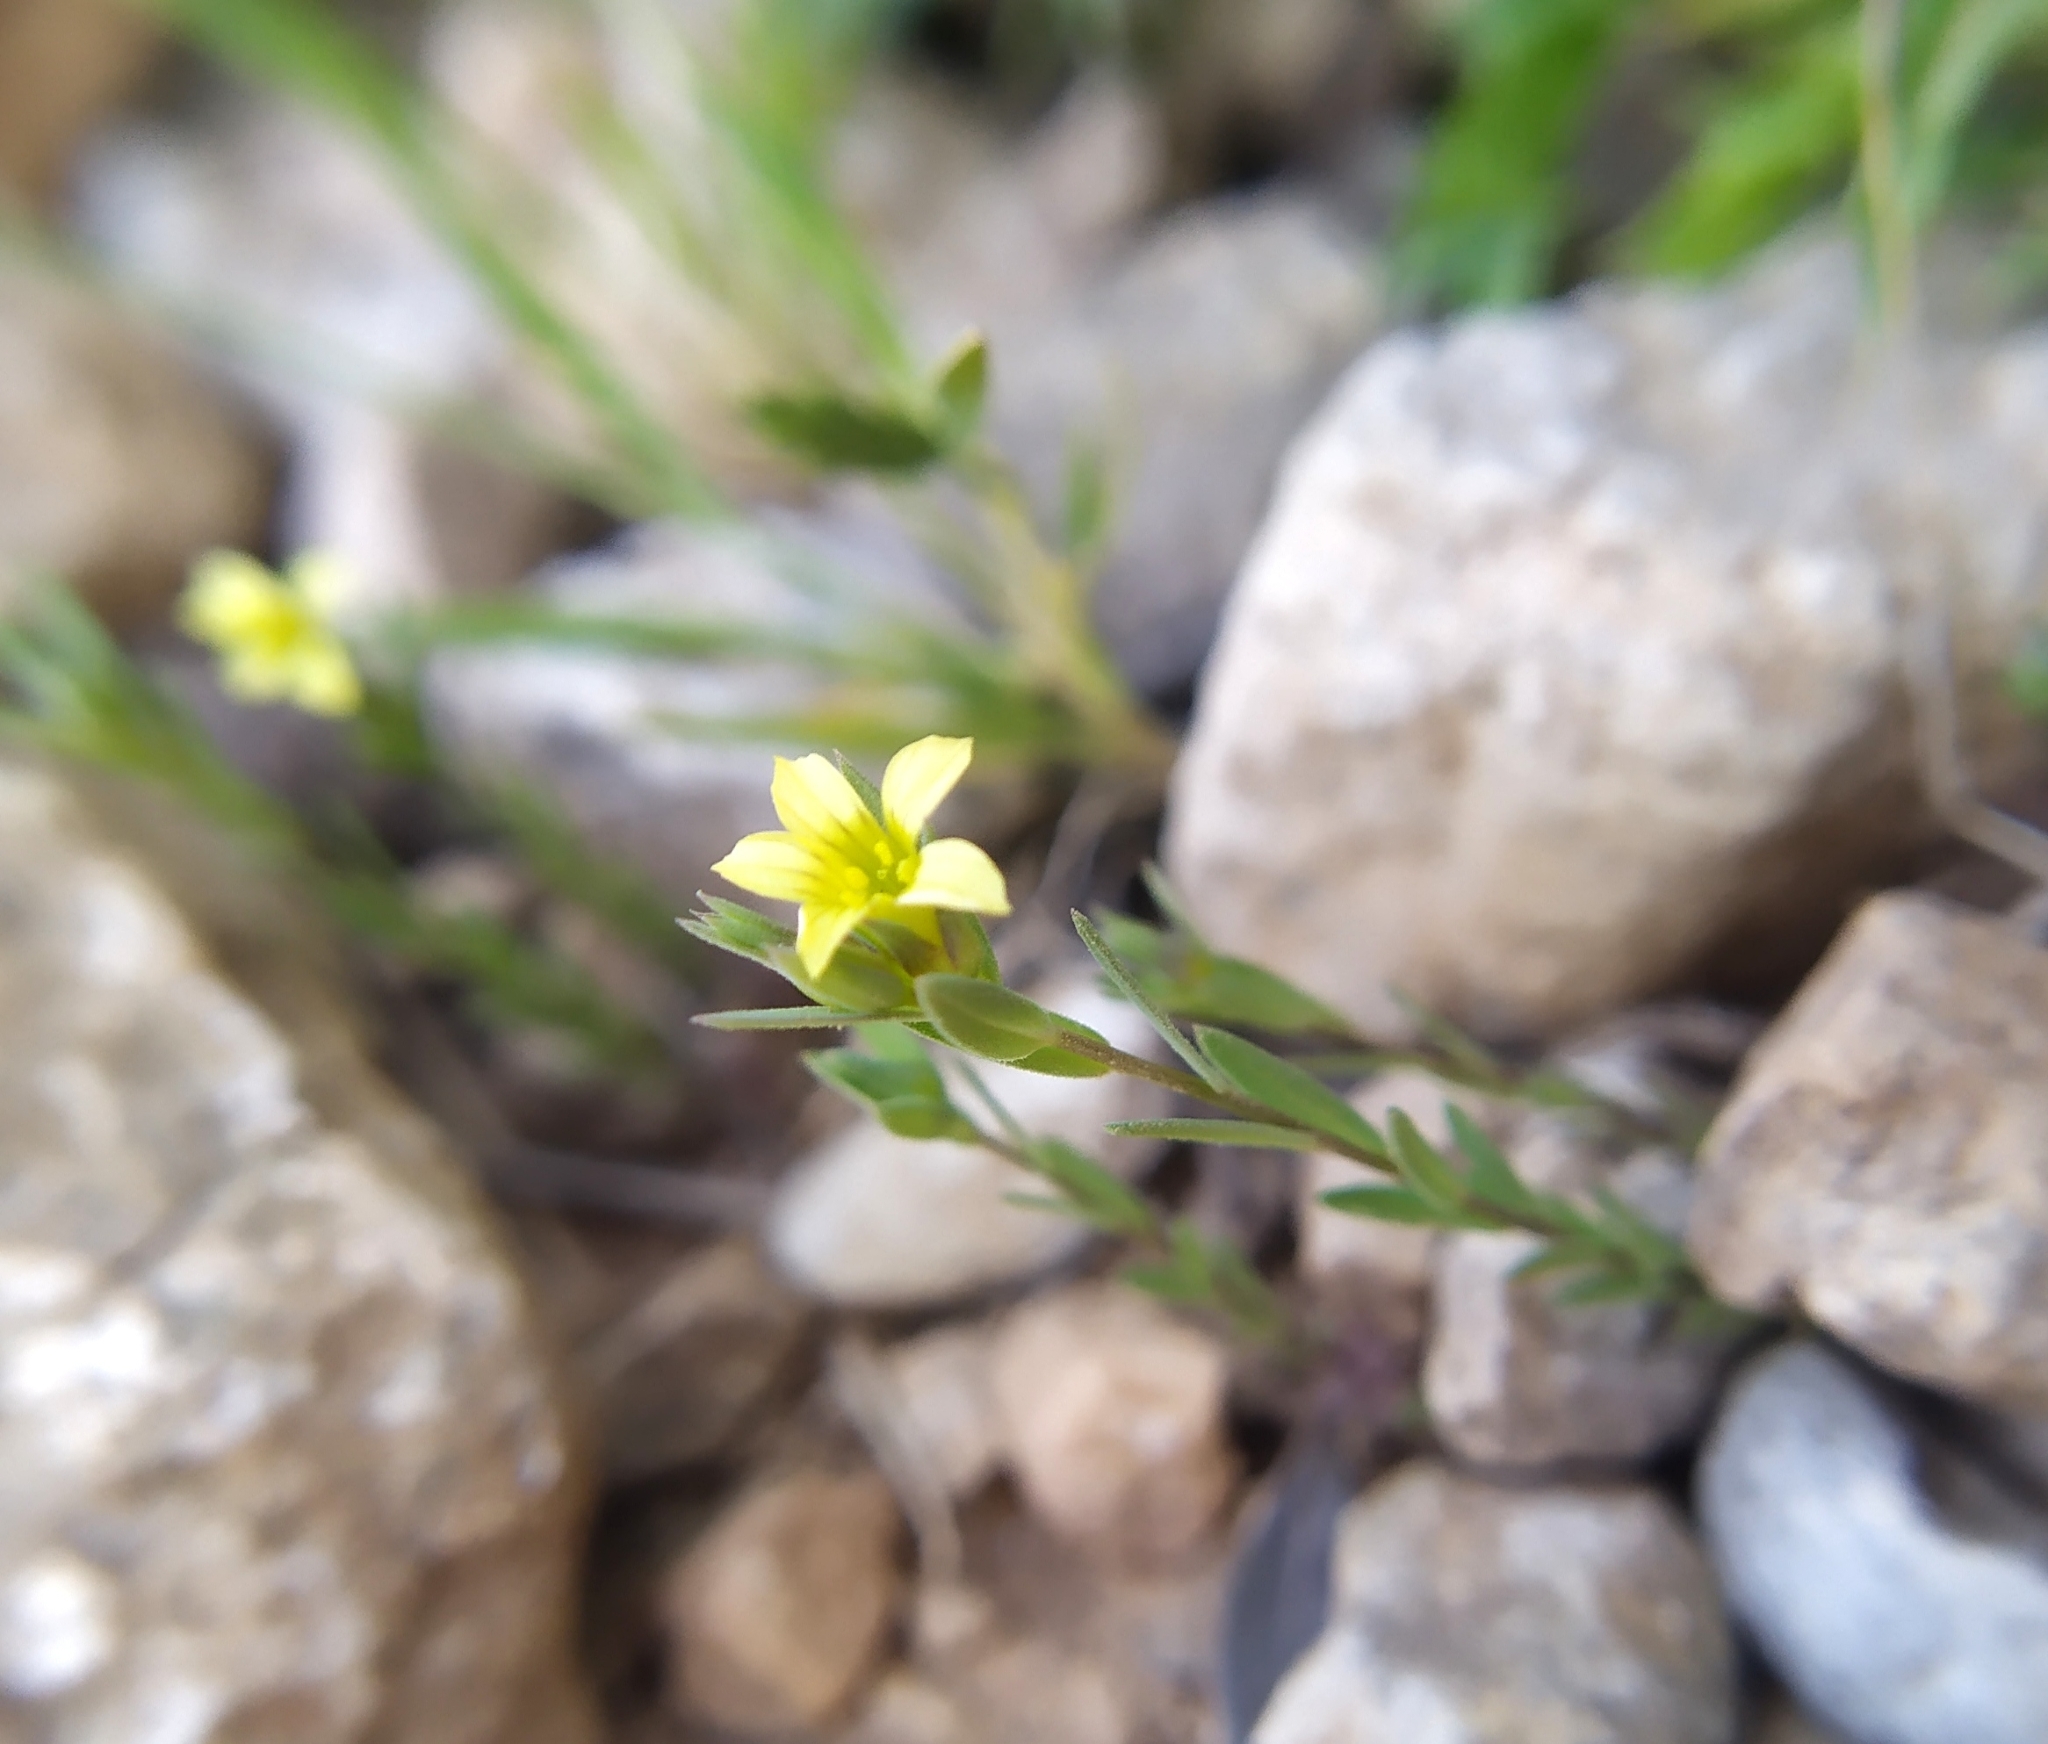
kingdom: Plantae
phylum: Tracheophyta
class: Magnoliopsida
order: Malpighiales
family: Linaceae
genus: Linum
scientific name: Linum strictum
